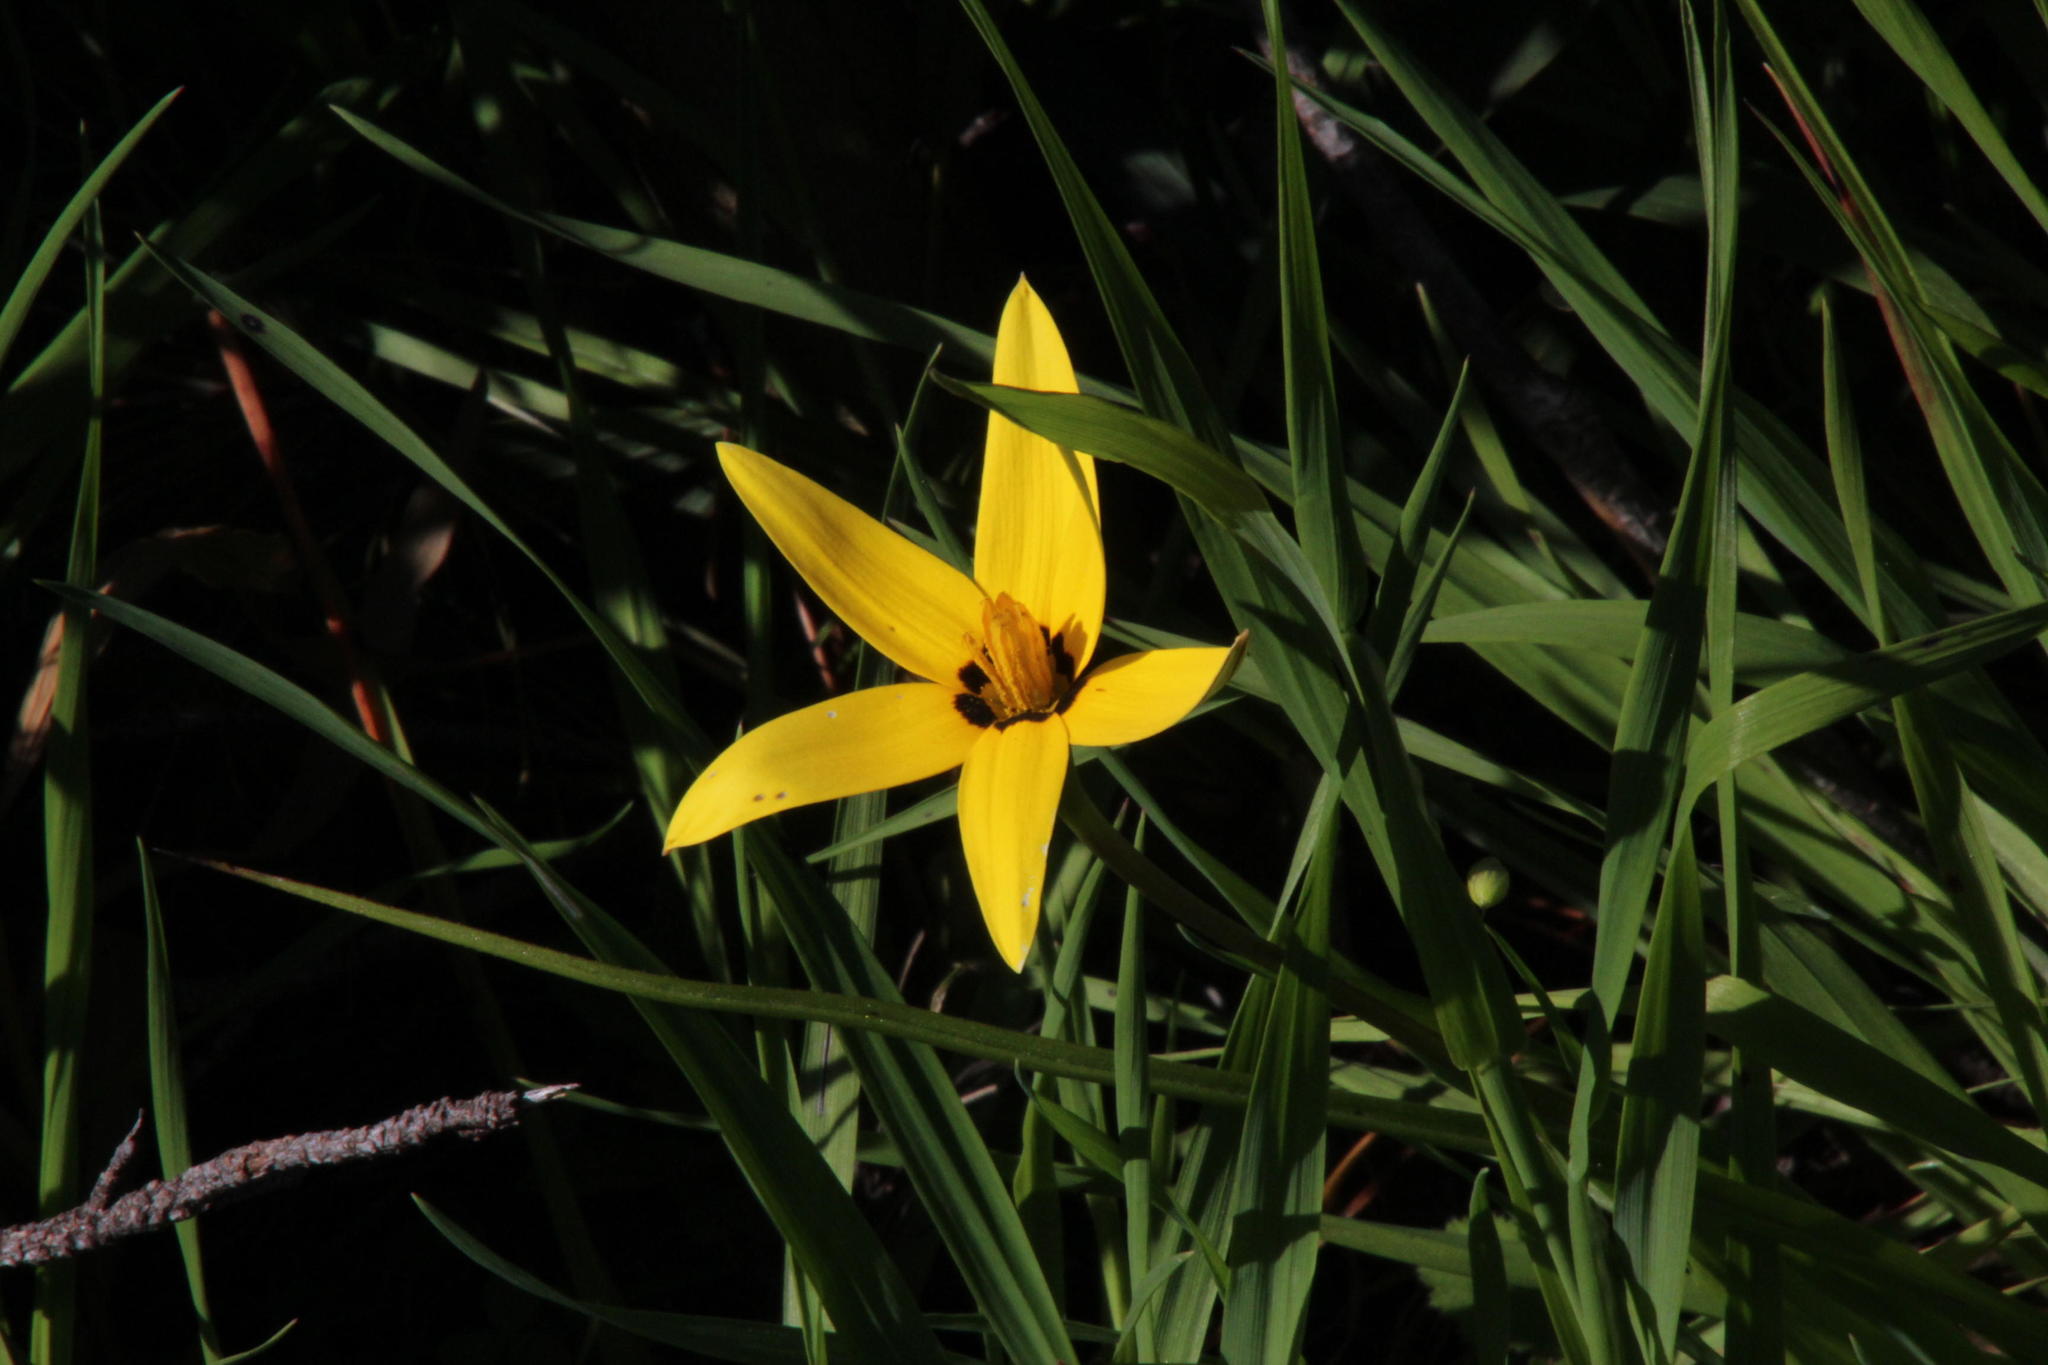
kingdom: Plantae
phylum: Tracheophyta
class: Liliopsida
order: Asparagales
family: Hypoxidaceae
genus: Pauridia
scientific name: Pauridia capensis
